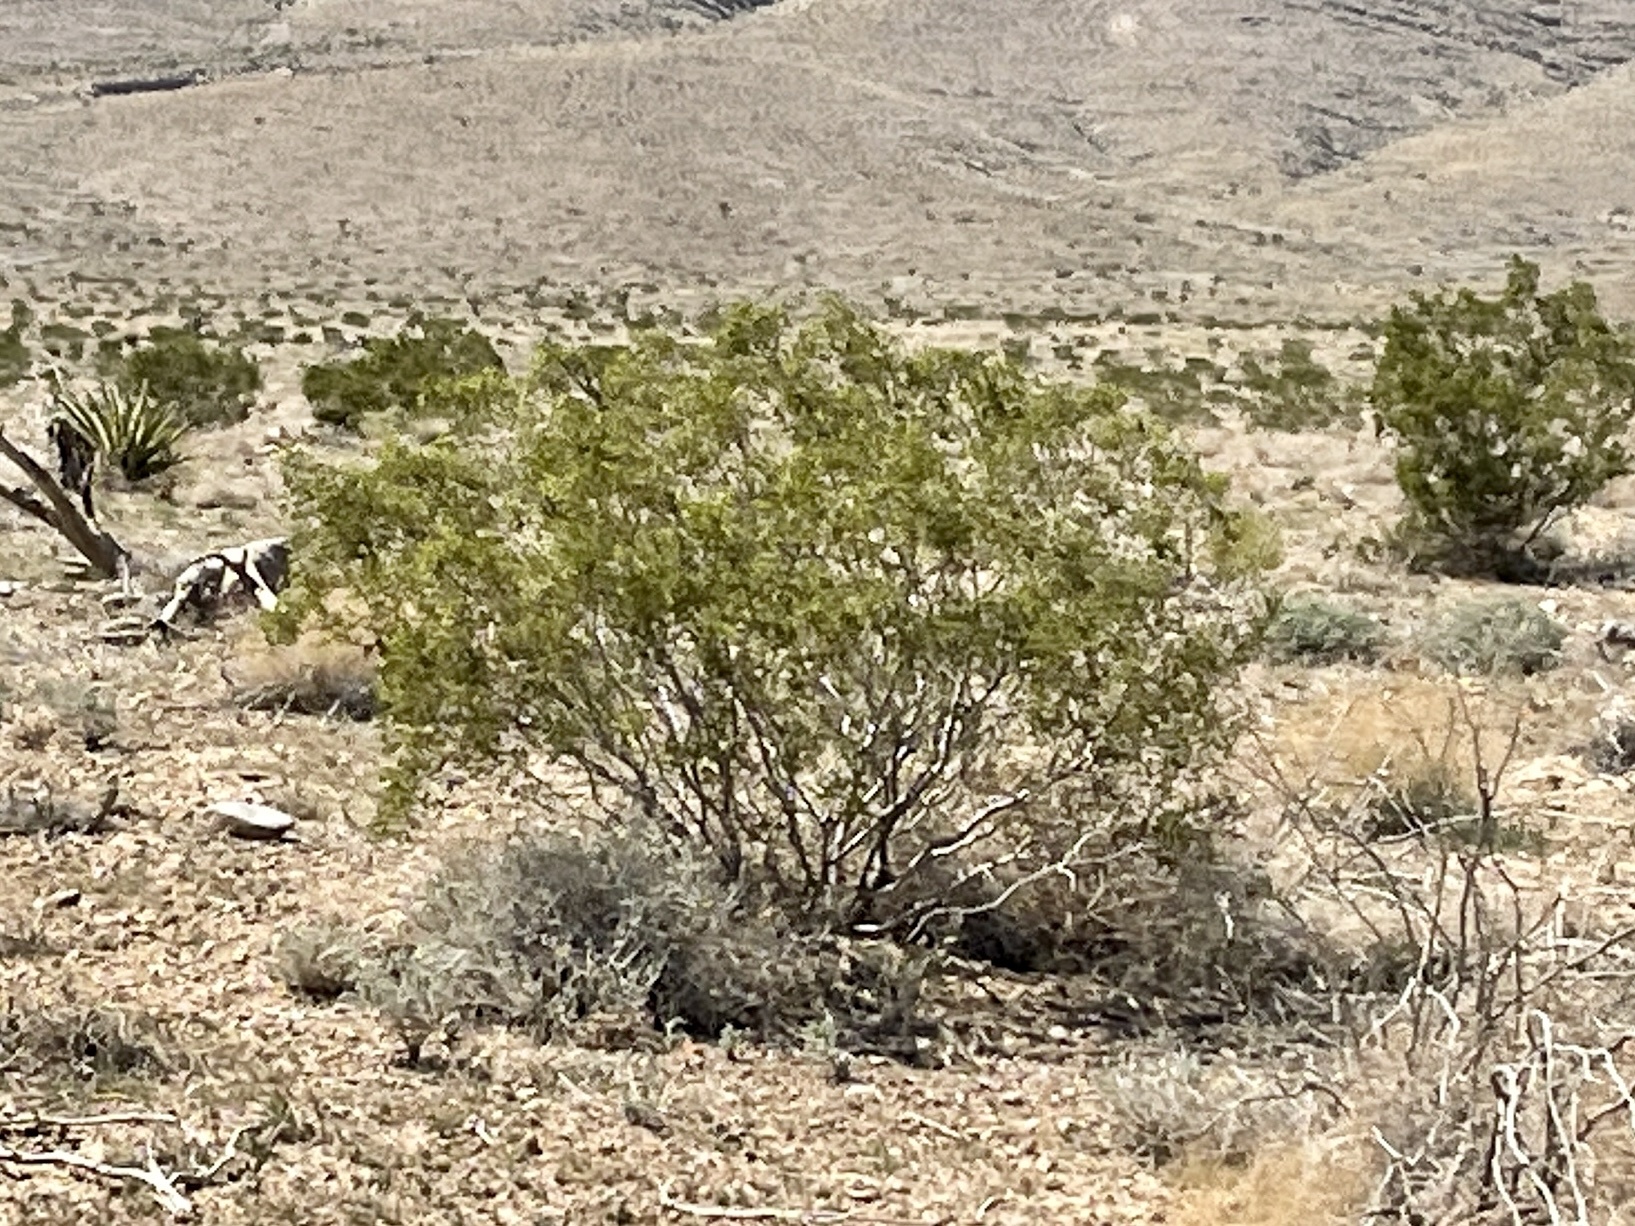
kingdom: Plantae
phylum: Tracheophyta
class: Magnoliopsida
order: Zygophyllales
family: Zygophyllaceae
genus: Larrea
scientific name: Larrea tridentata
